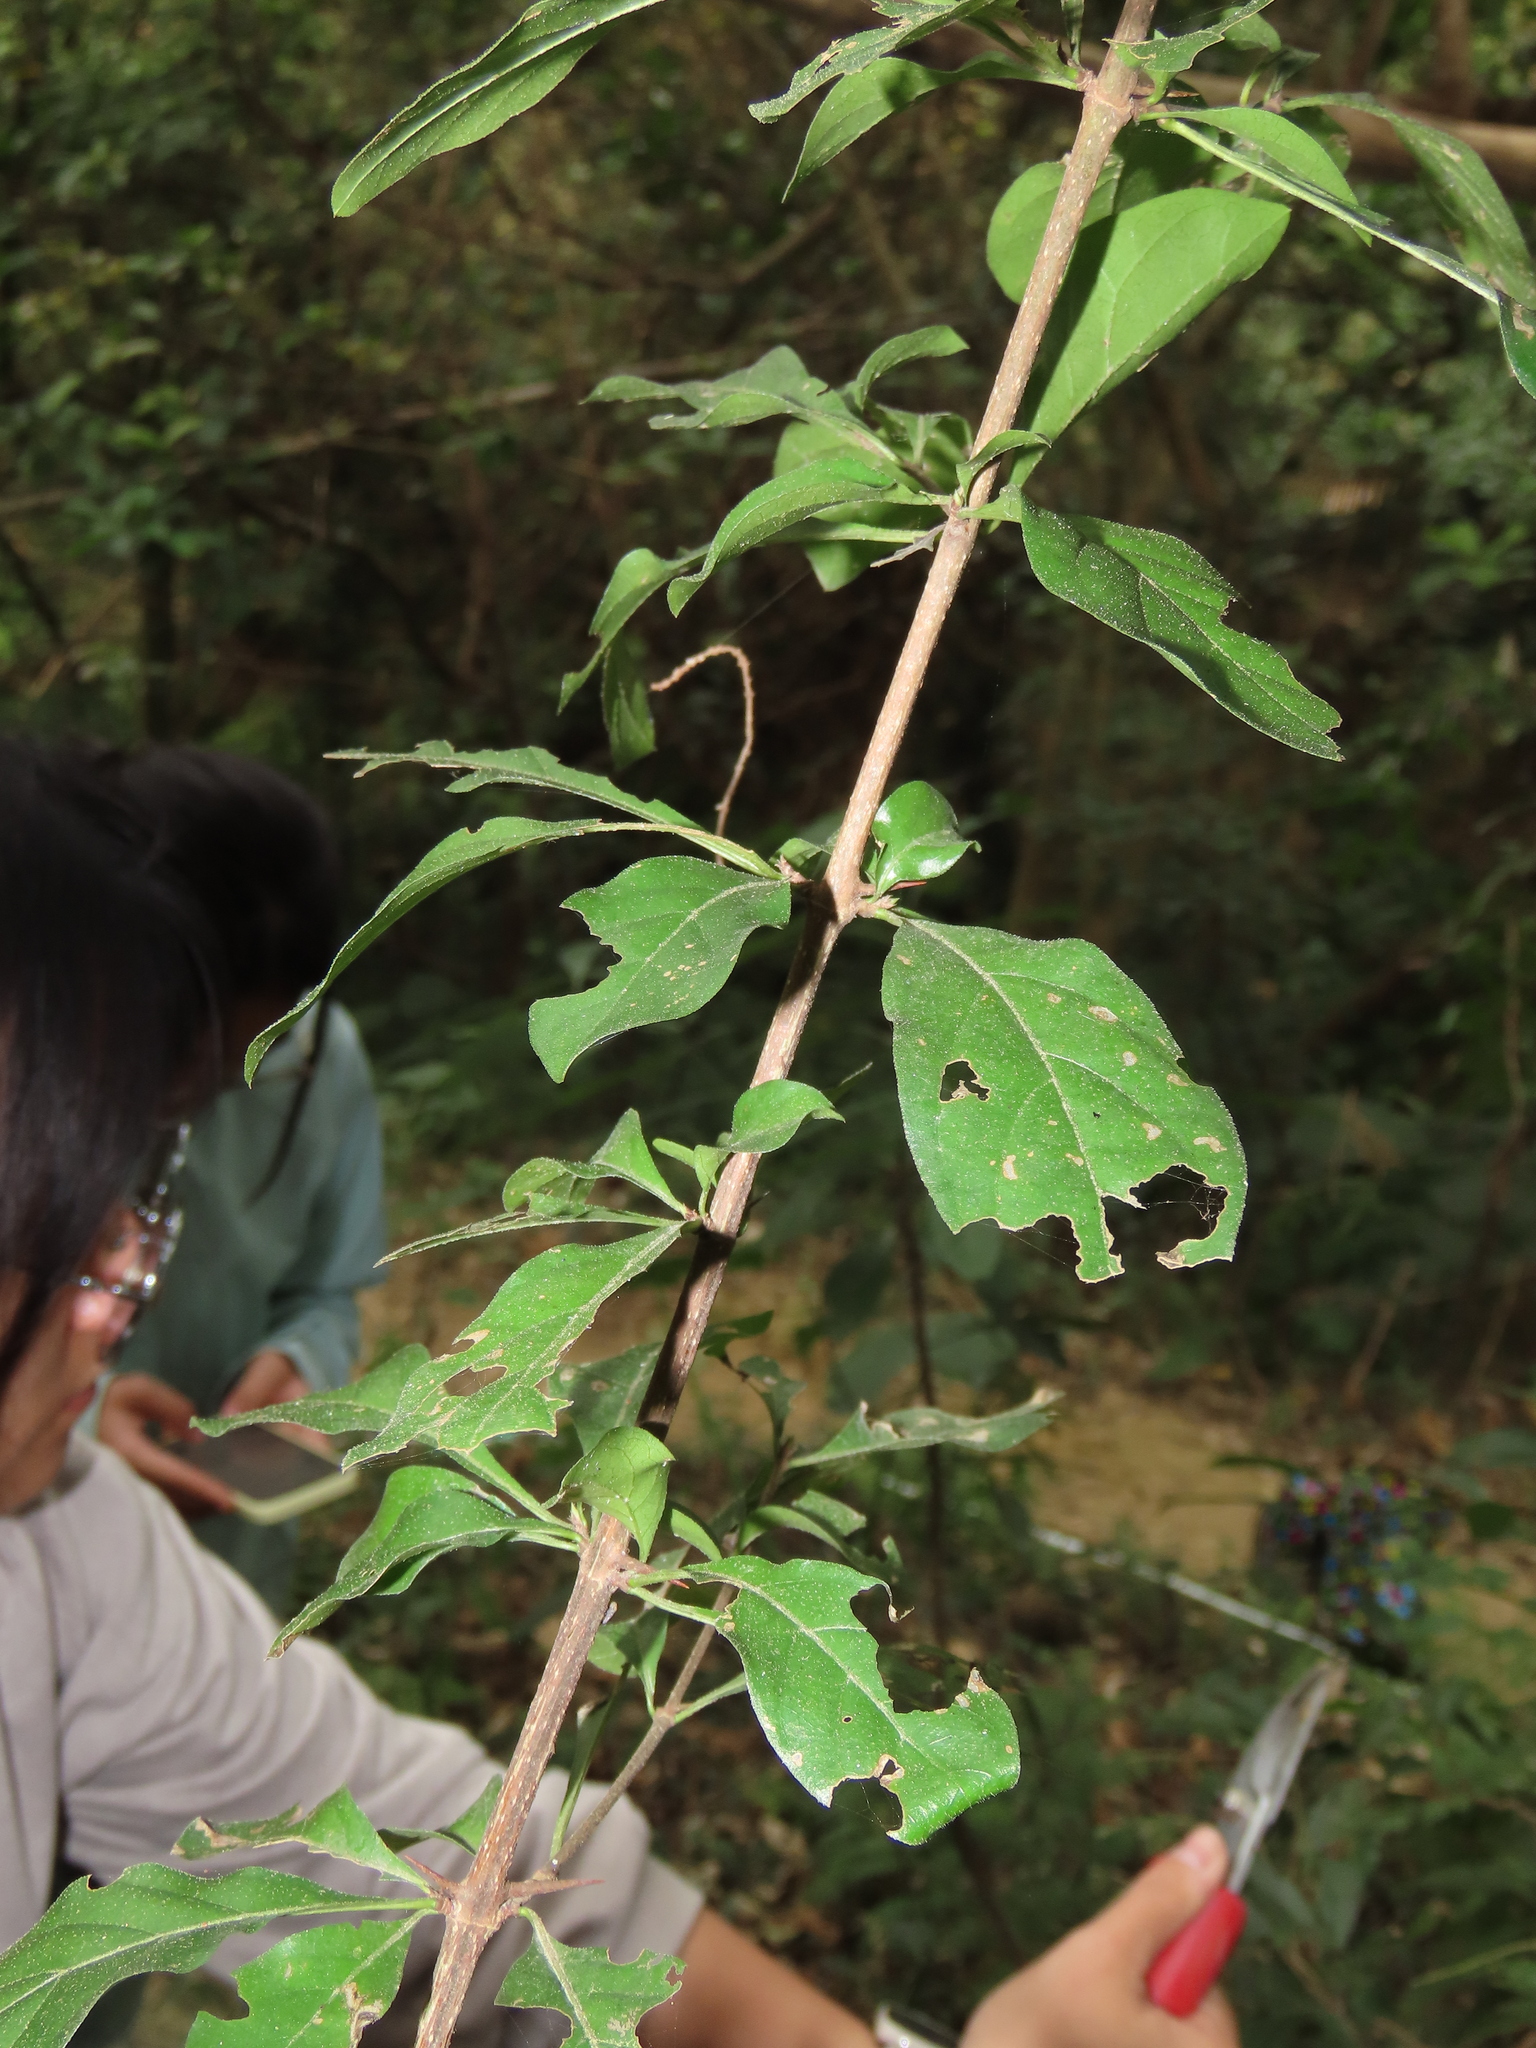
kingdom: Plantae
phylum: Tracheophyta
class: Magnoliopsida
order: Caryophyllales
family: Nyctaginaceae
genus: Pisonia
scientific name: Pisonia aculeata
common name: Cockspur vine
